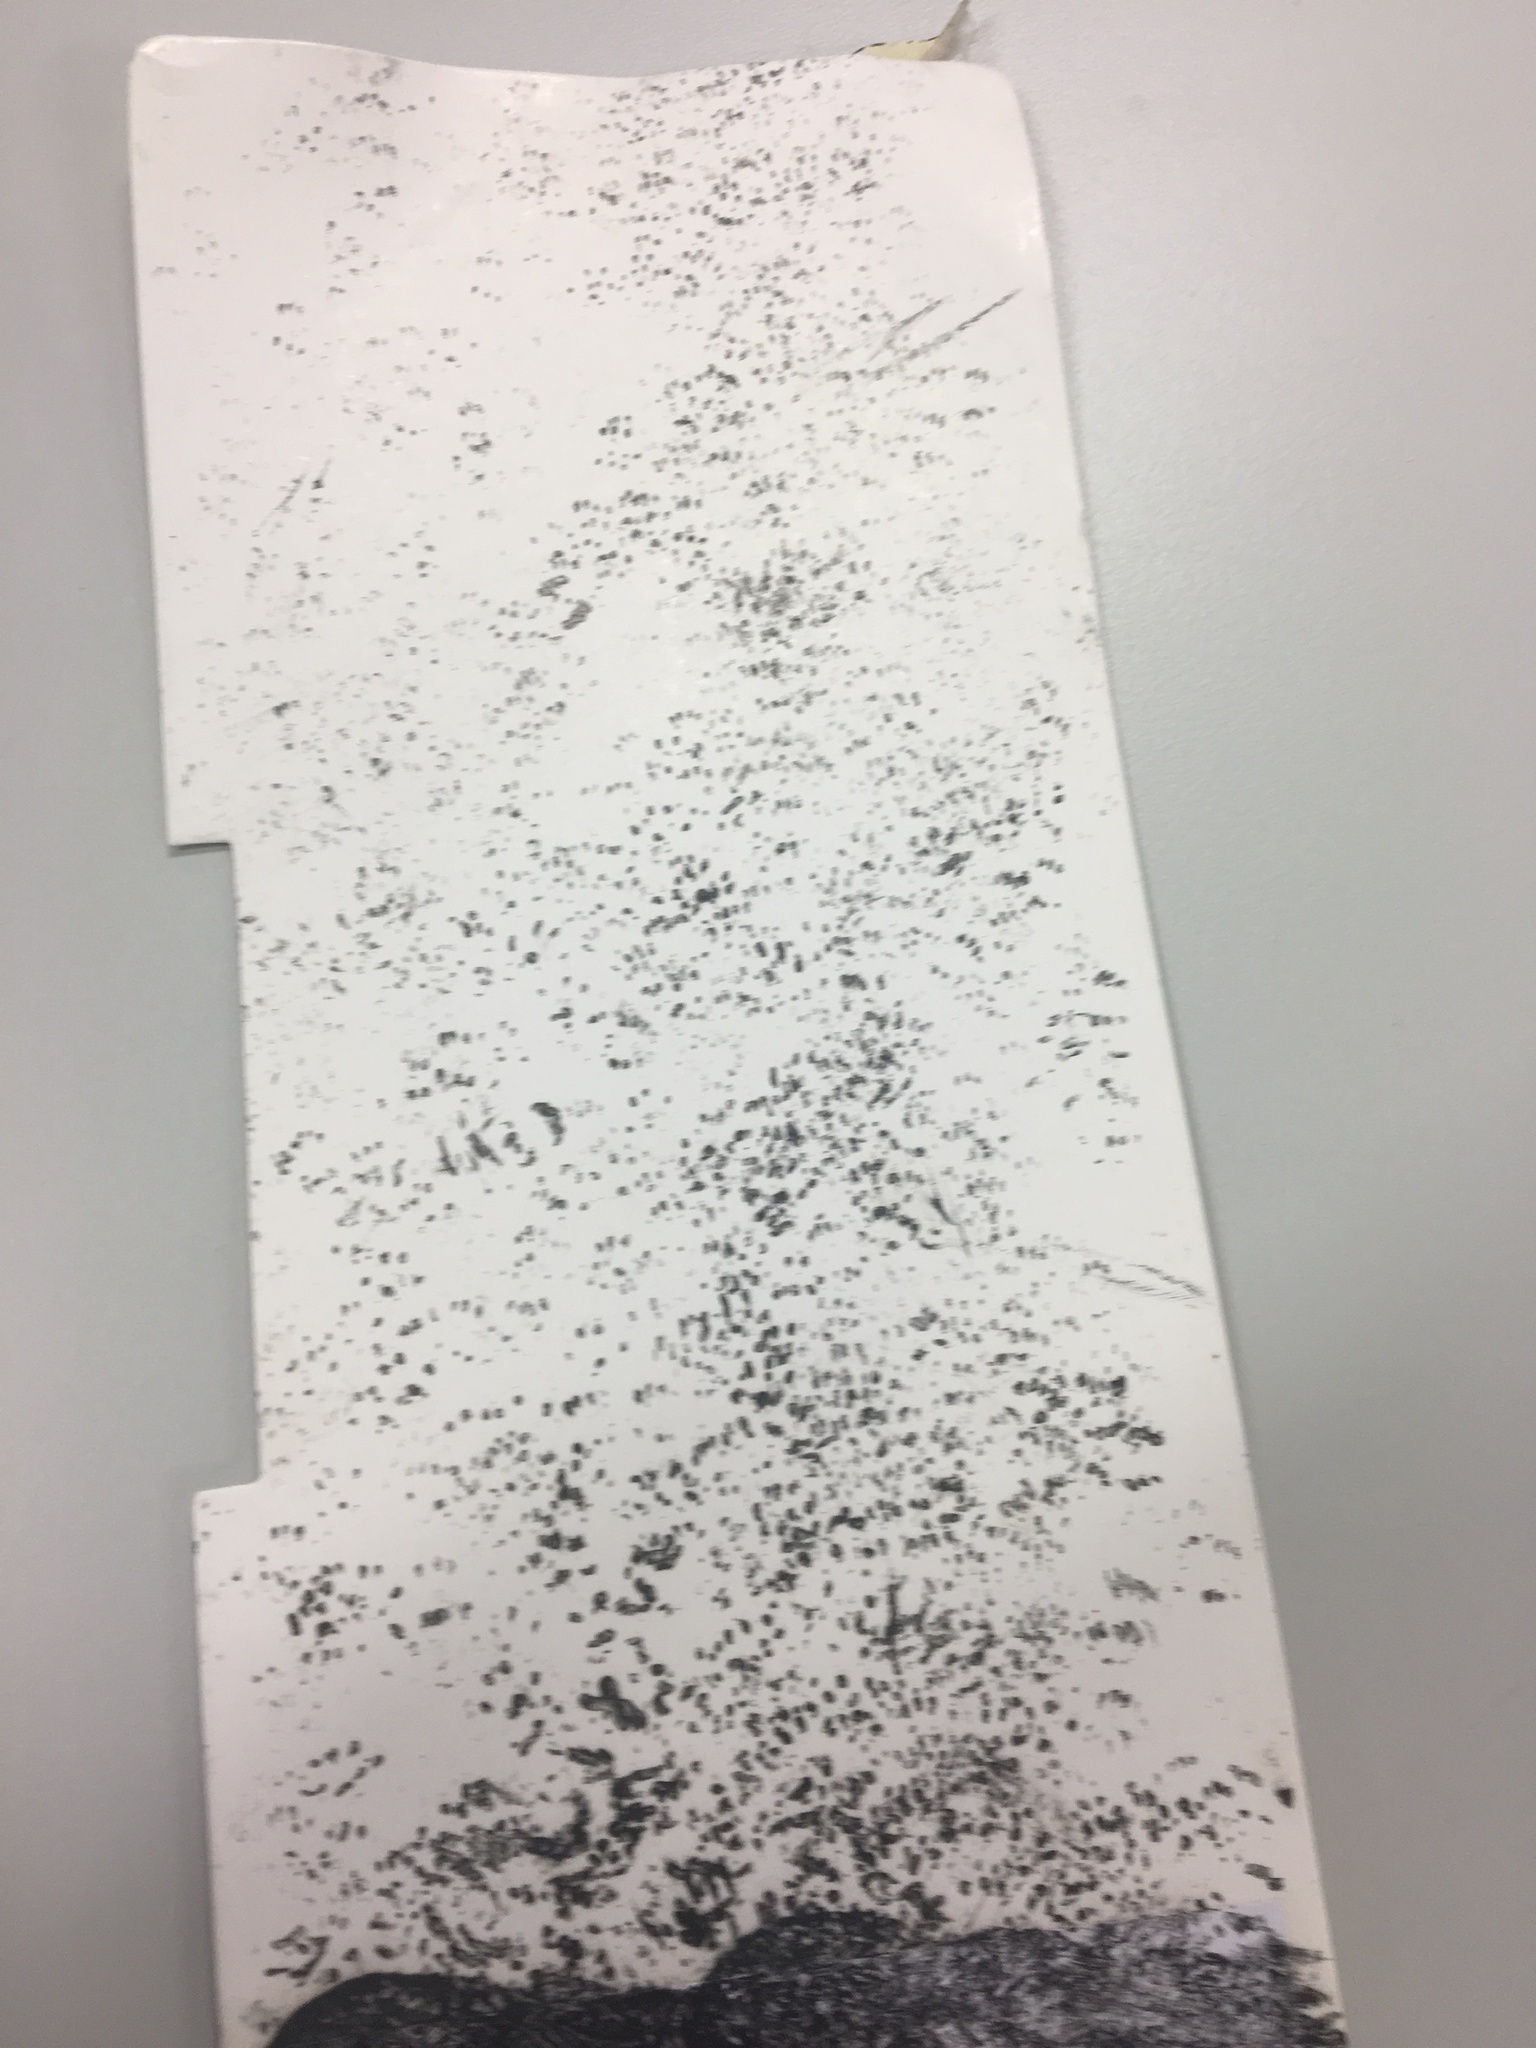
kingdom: Animalia
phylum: Chordata
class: Mammalia
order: Rodentia
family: Muridae
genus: Mus
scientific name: Mus musculus
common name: House mouse
